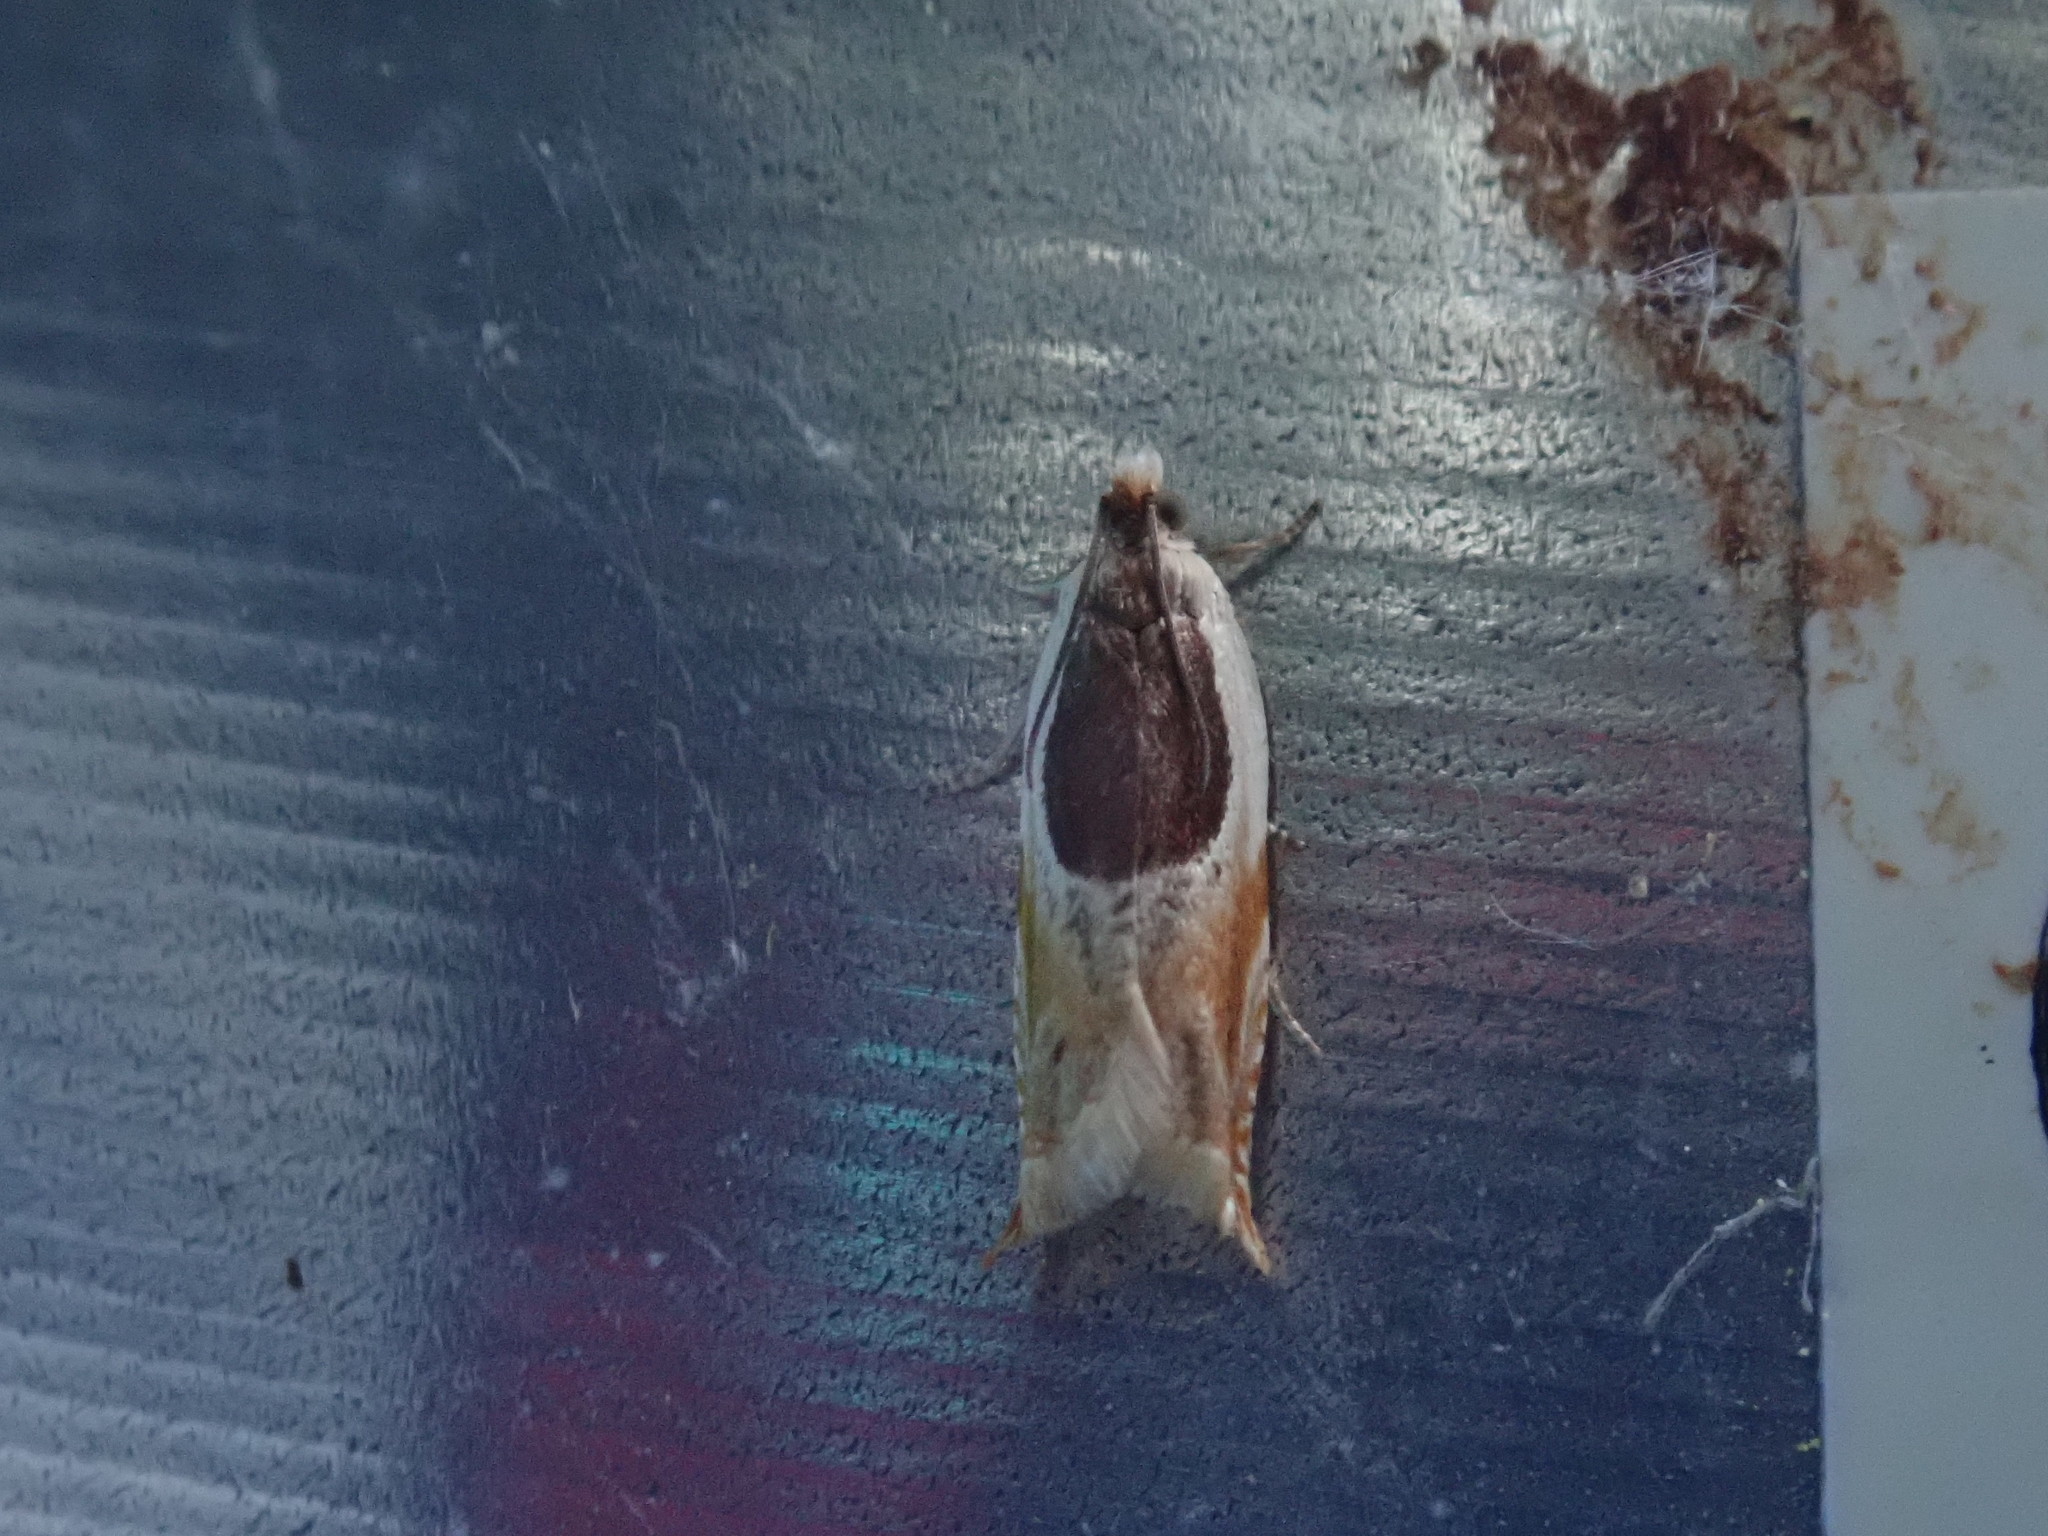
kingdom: Animalia
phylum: Arthropoda
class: Insecta
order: Lepidoptera
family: Tortricidae
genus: Ancylis
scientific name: Ancylis burgessiana
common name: Oak leaffolder moth
